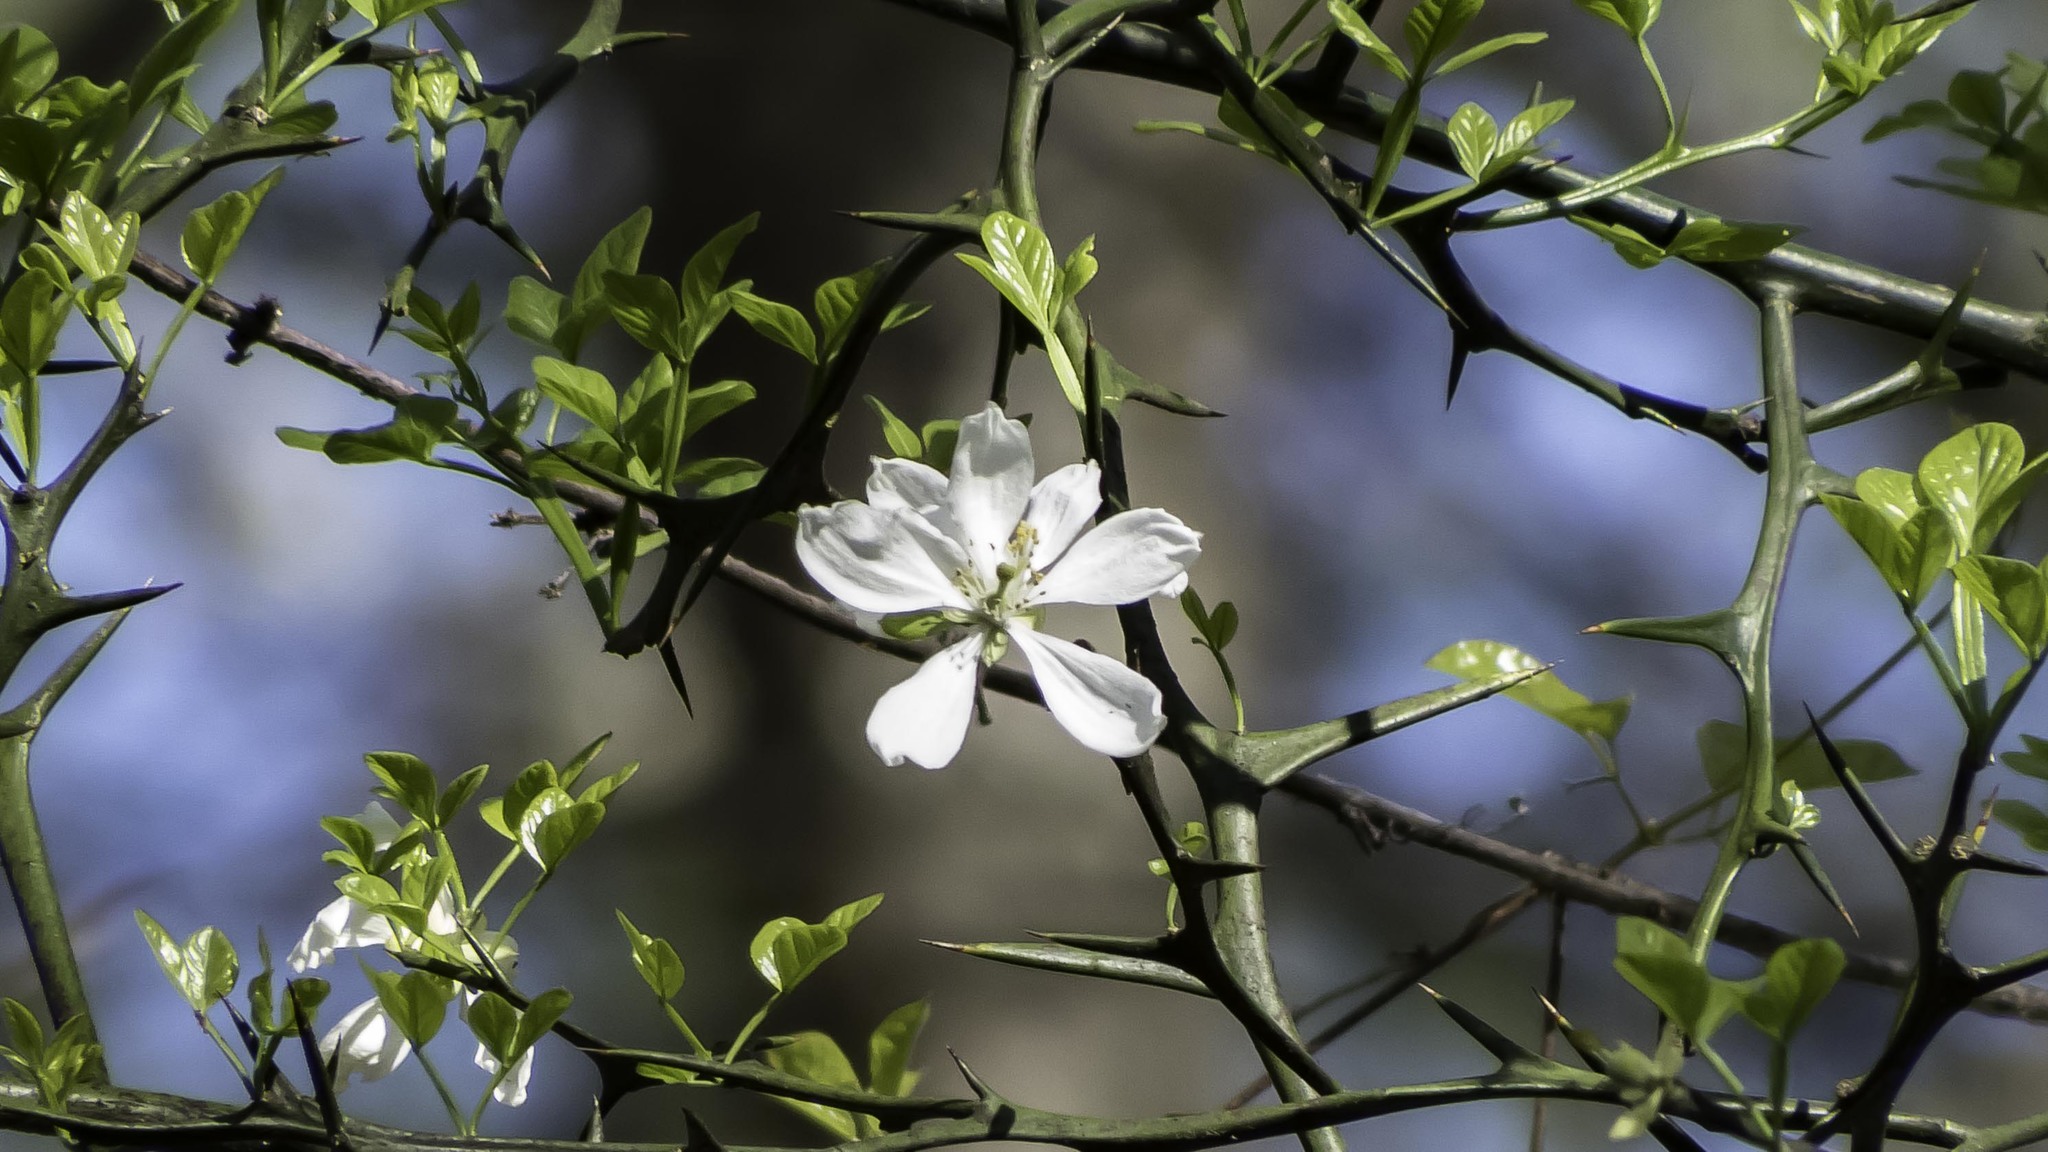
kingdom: Plantae
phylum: Tracheophyta
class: Magnoliopsida
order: Sapindales
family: Rutaceae
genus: Citrus
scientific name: Citrus trifoliata
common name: Japanese bitter-orange
